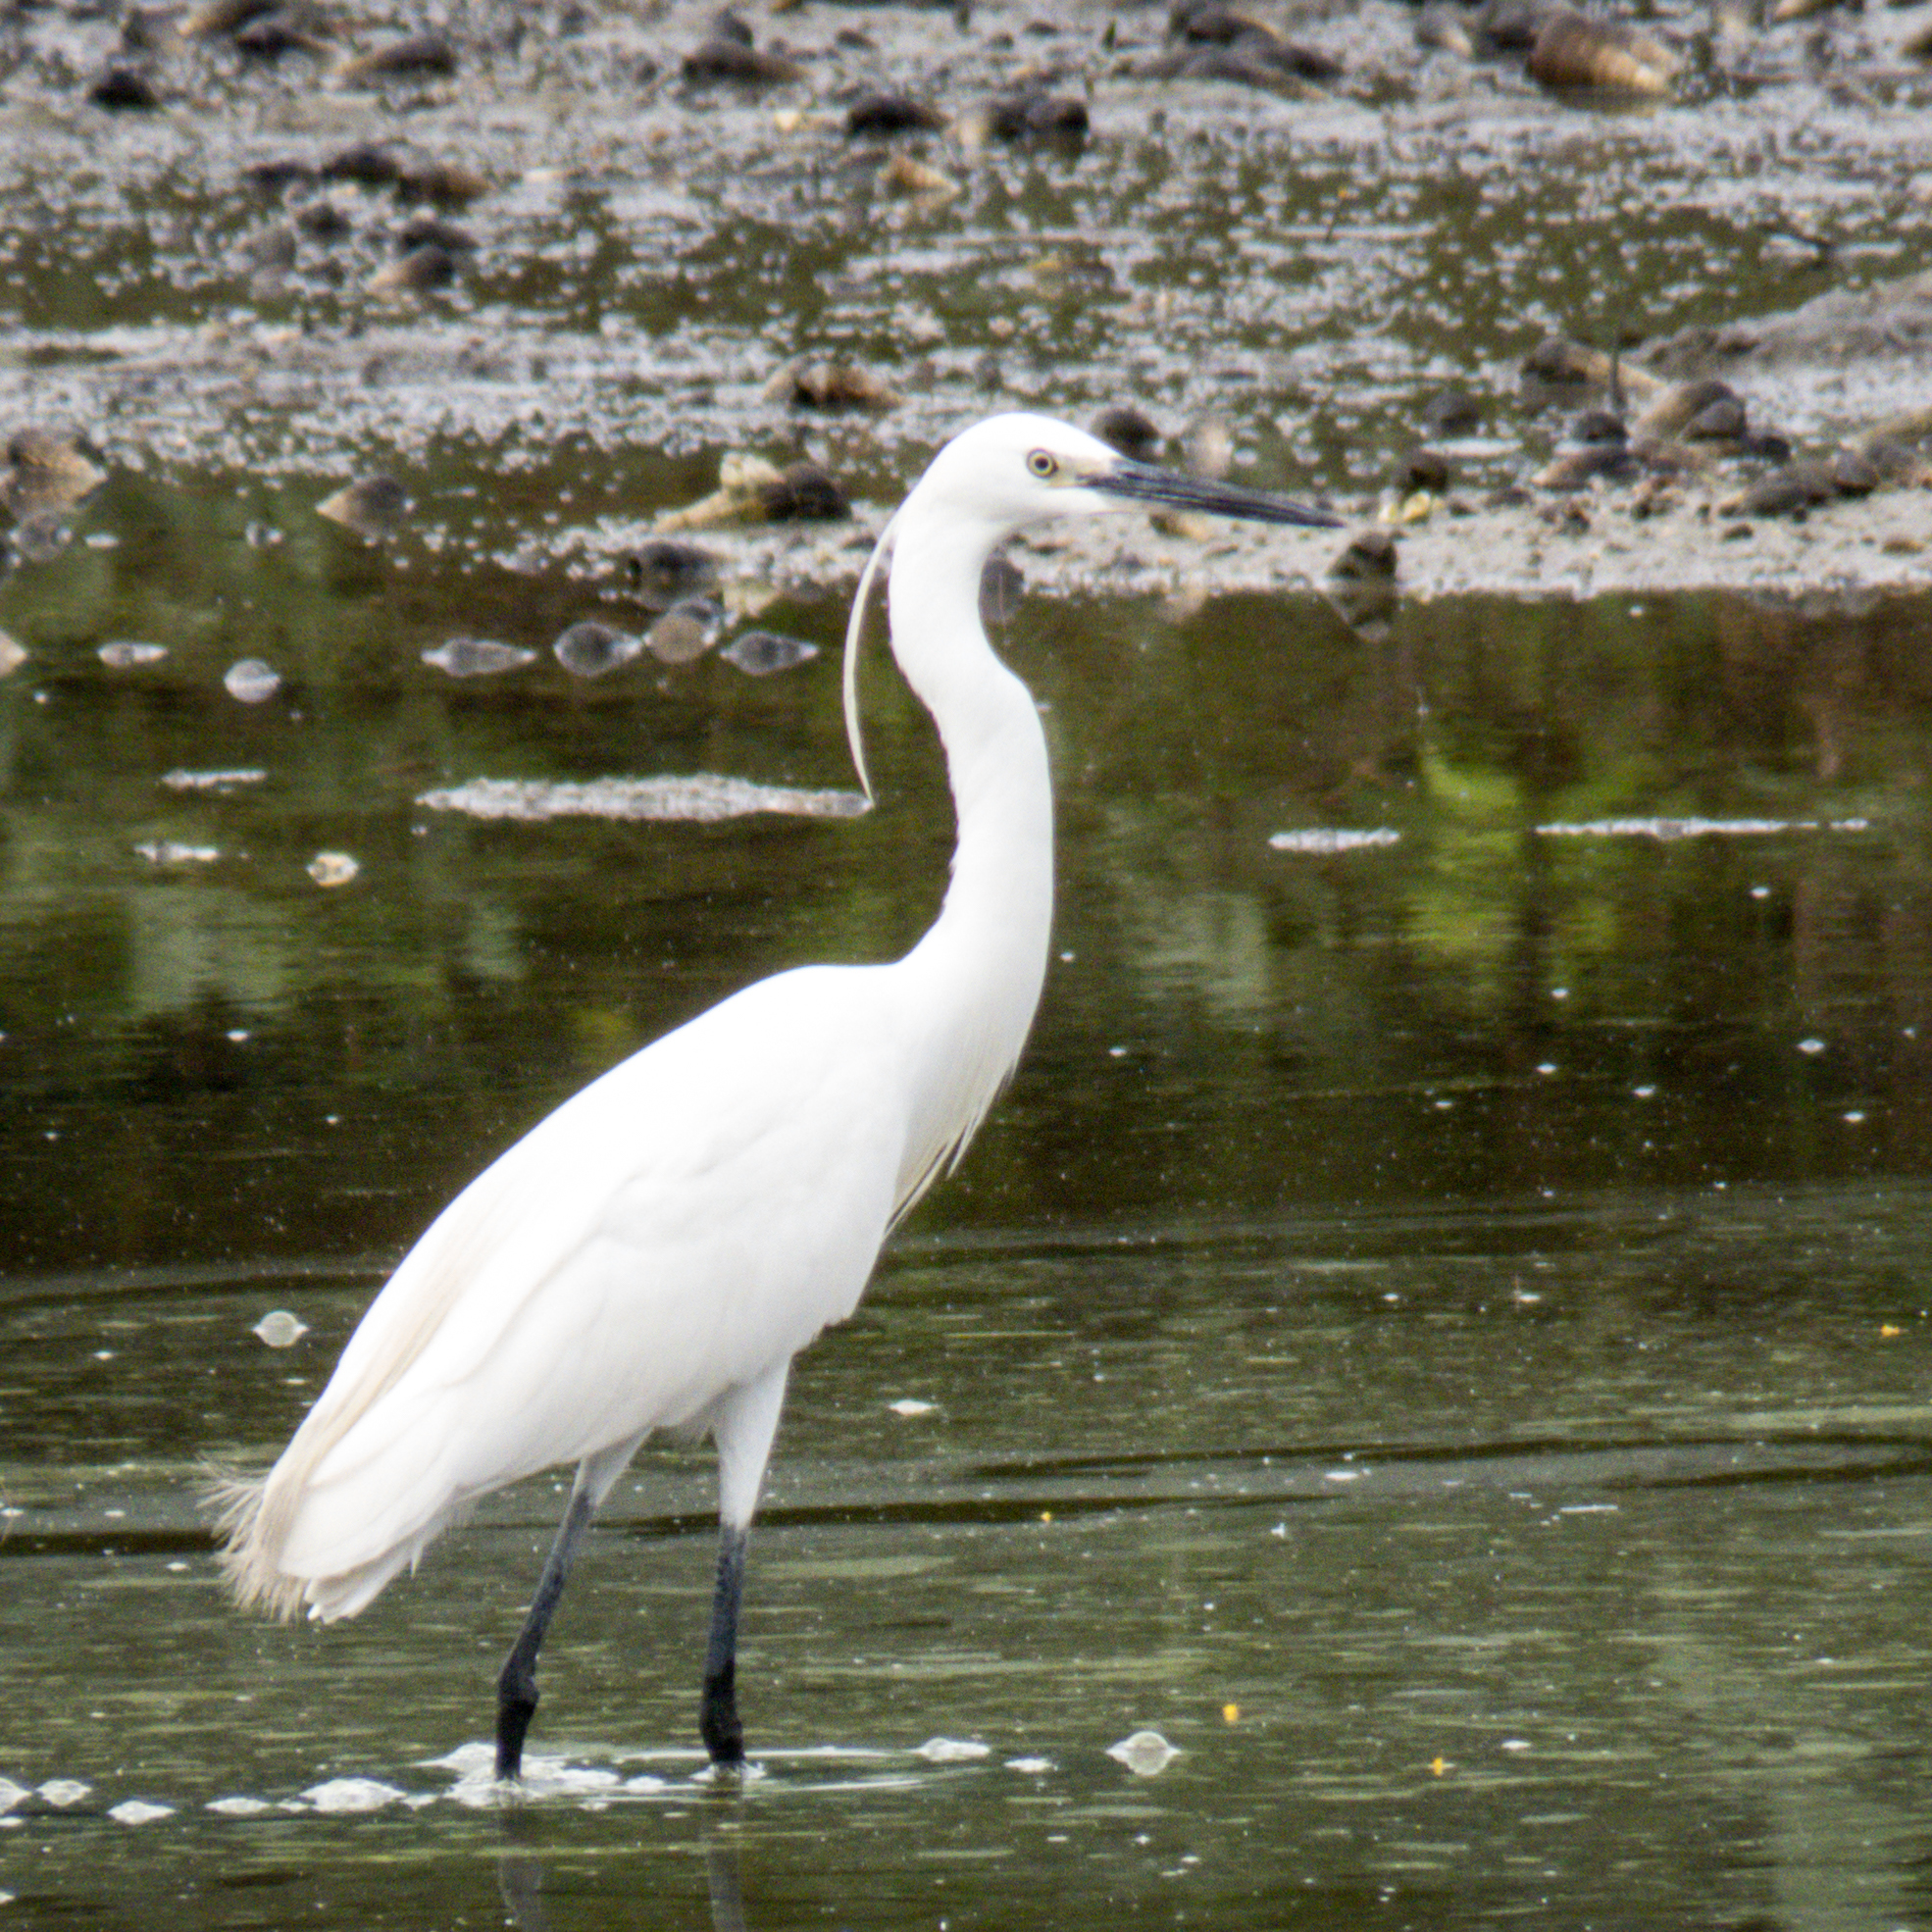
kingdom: Animalia
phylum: Chordata
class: Aves
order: Pelecaniformes
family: Ardeidae
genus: Egretta
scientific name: Egretta garzetta
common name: Little egret
